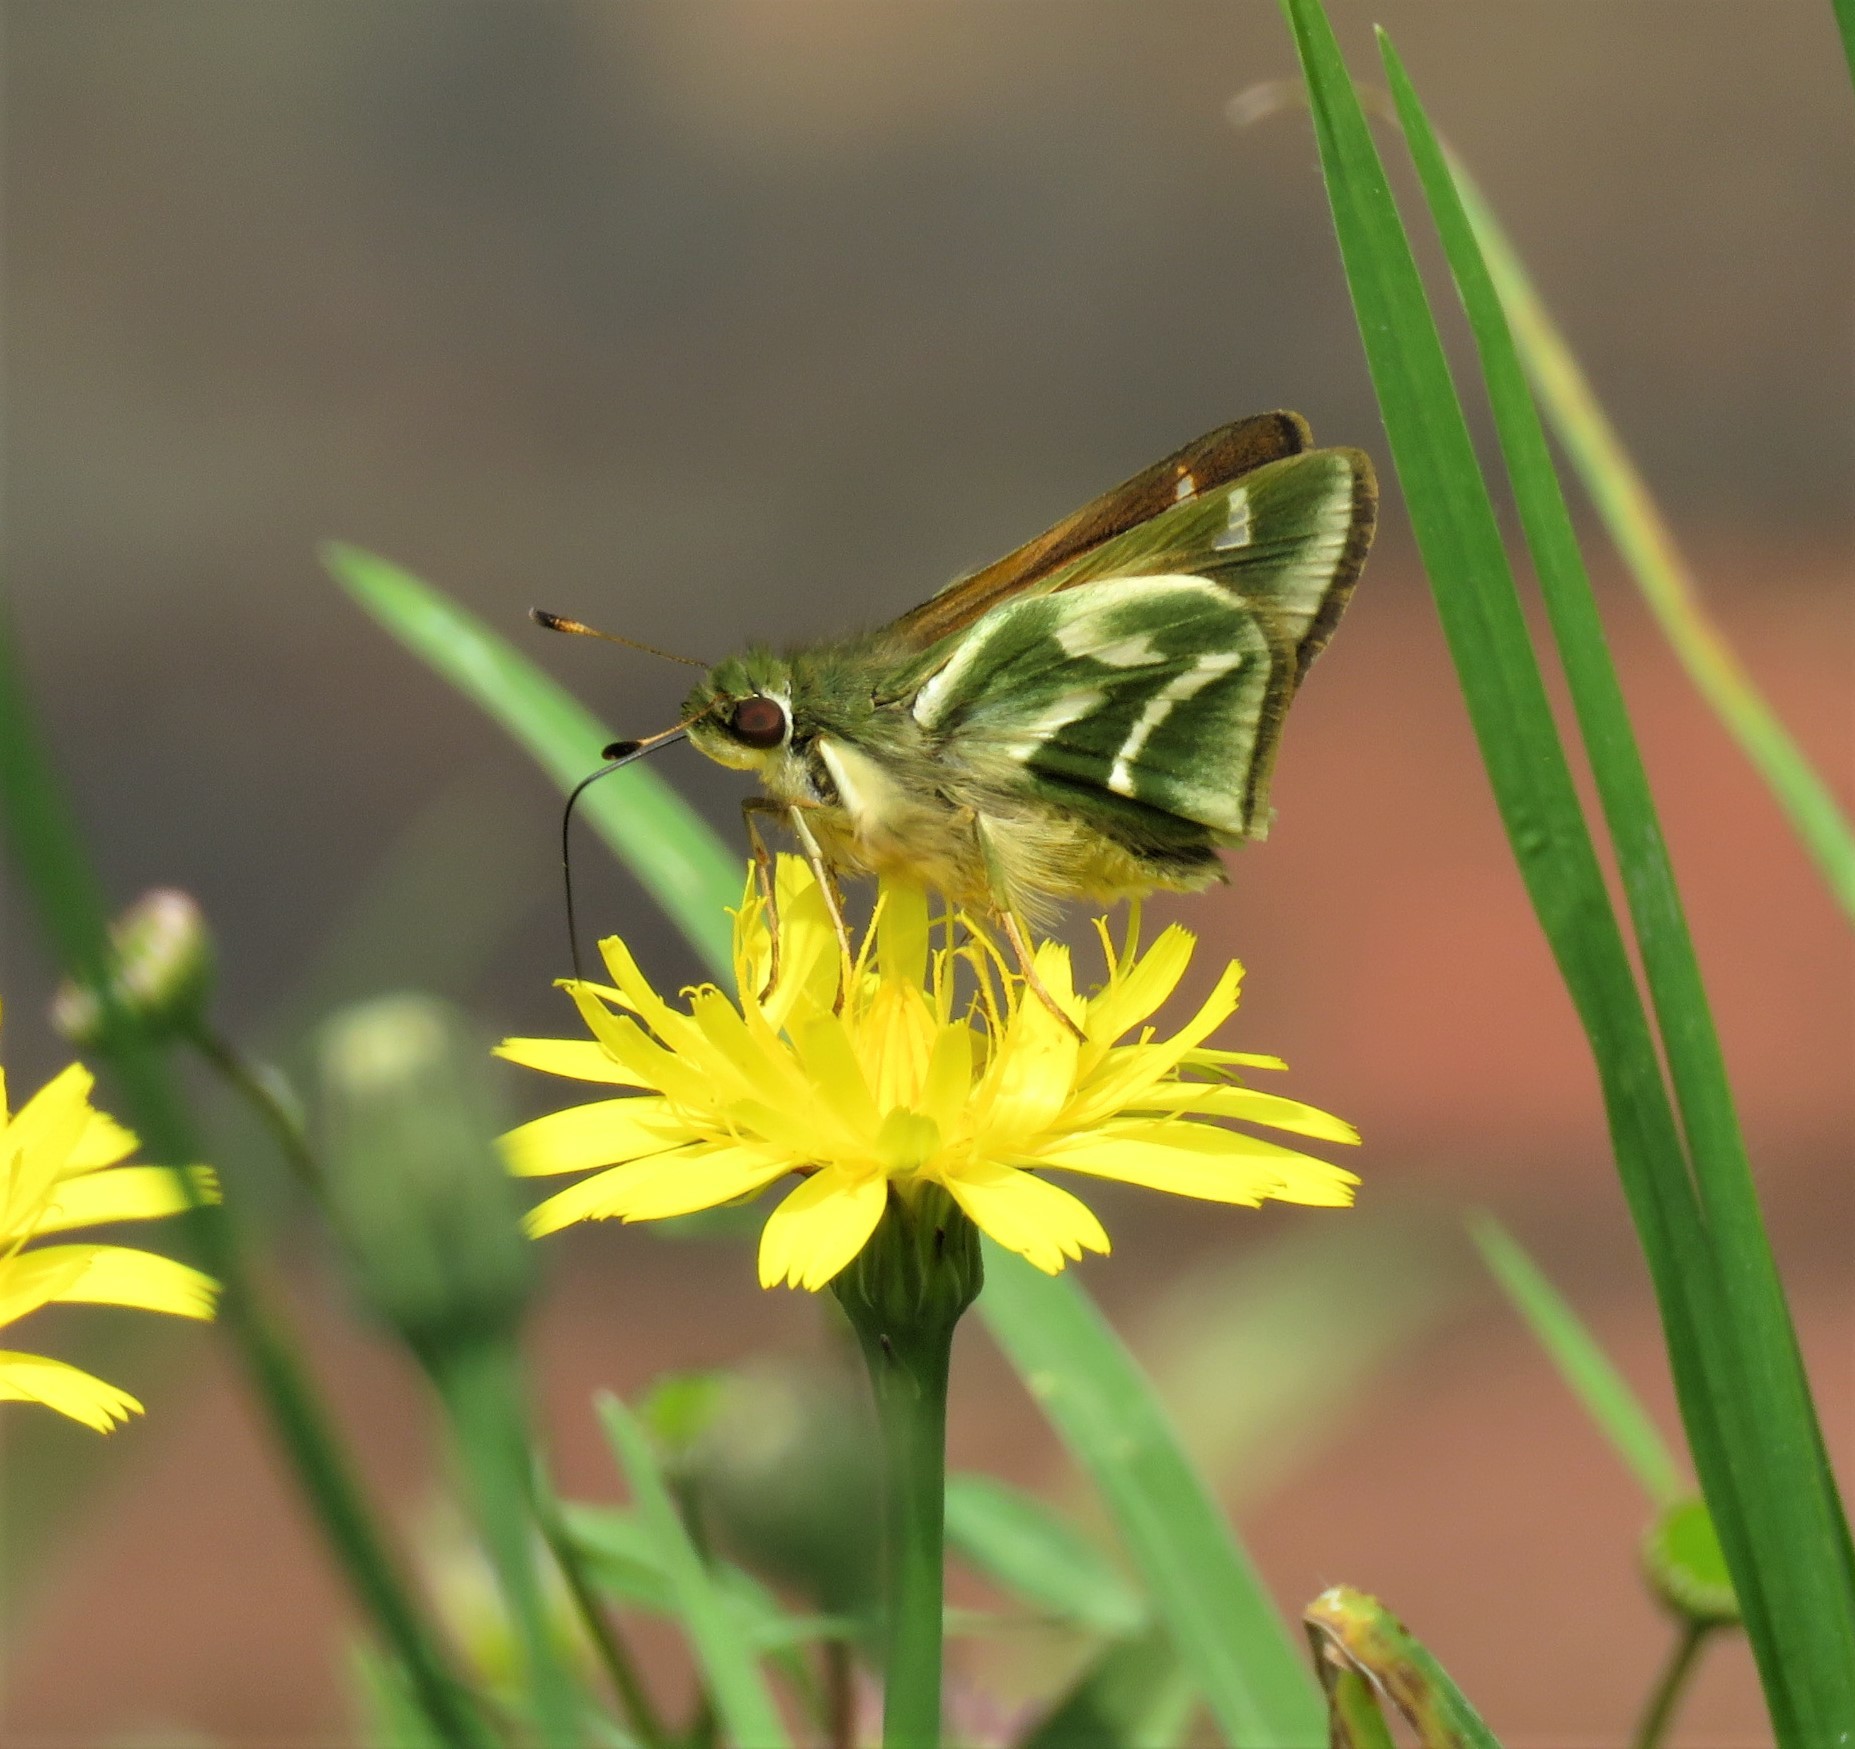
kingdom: Animalia
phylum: Arthropoda
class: Insecta
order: Lepidoptera
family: Hesperiidae
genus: Serdis
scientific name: Serdis venezuelae
